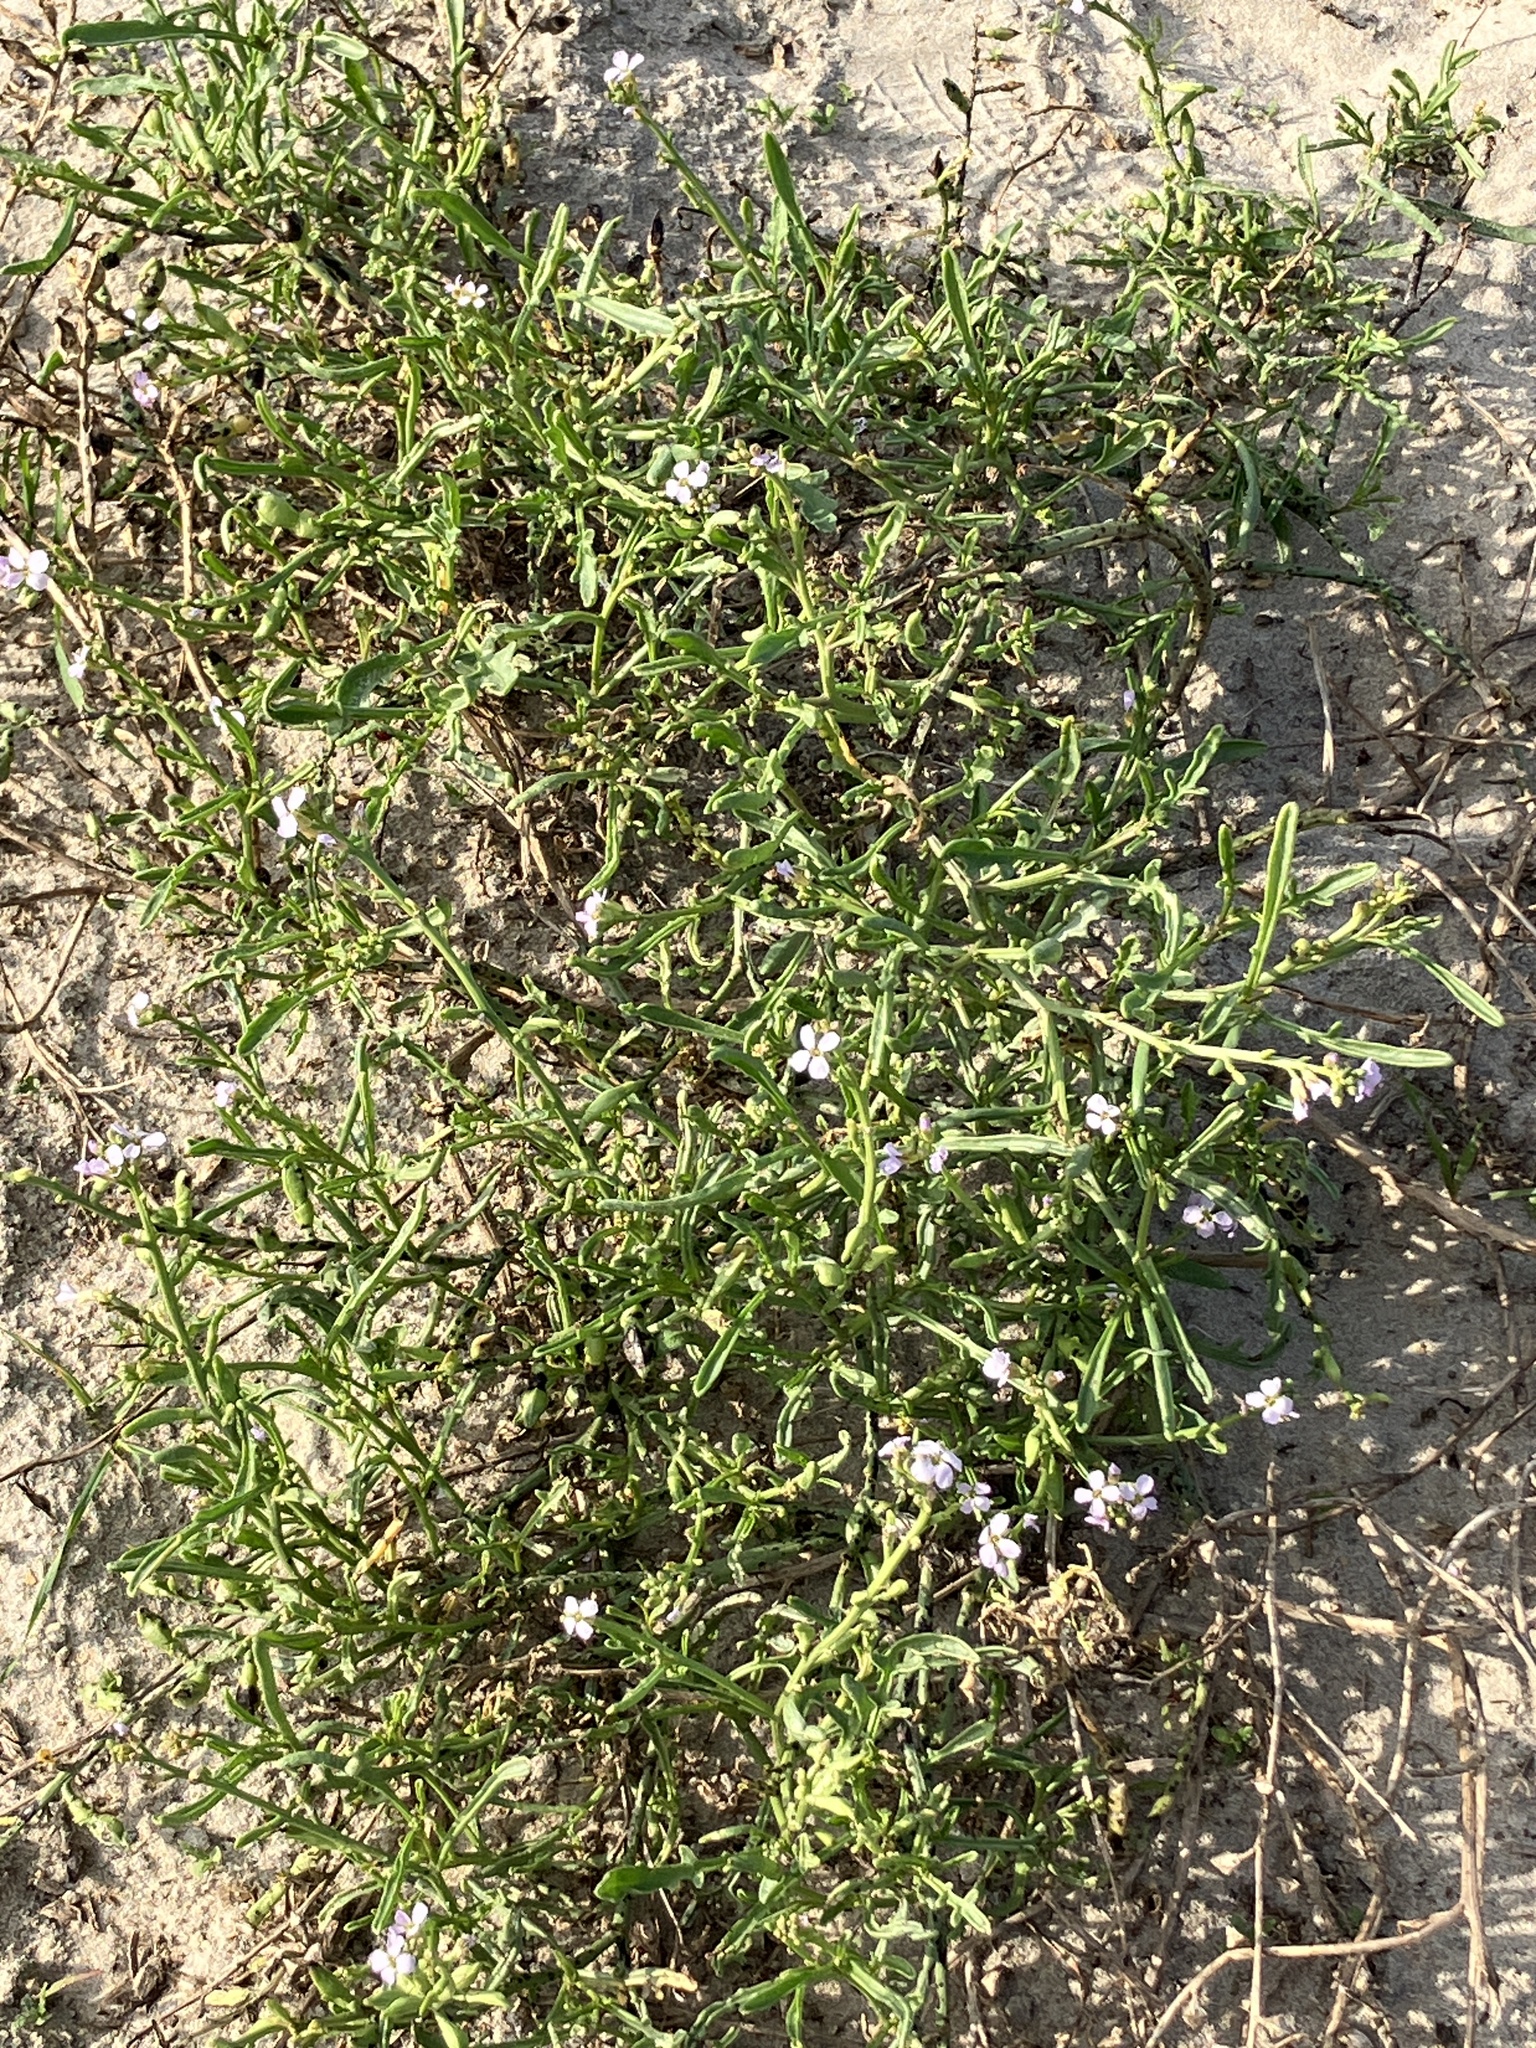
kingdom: Plantae
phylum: Tracheophyta
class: Magnoliopsida
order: Brassicales
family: Brassicaceae
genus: Cakile
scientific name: Cakile maritima
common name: Sea rocket
